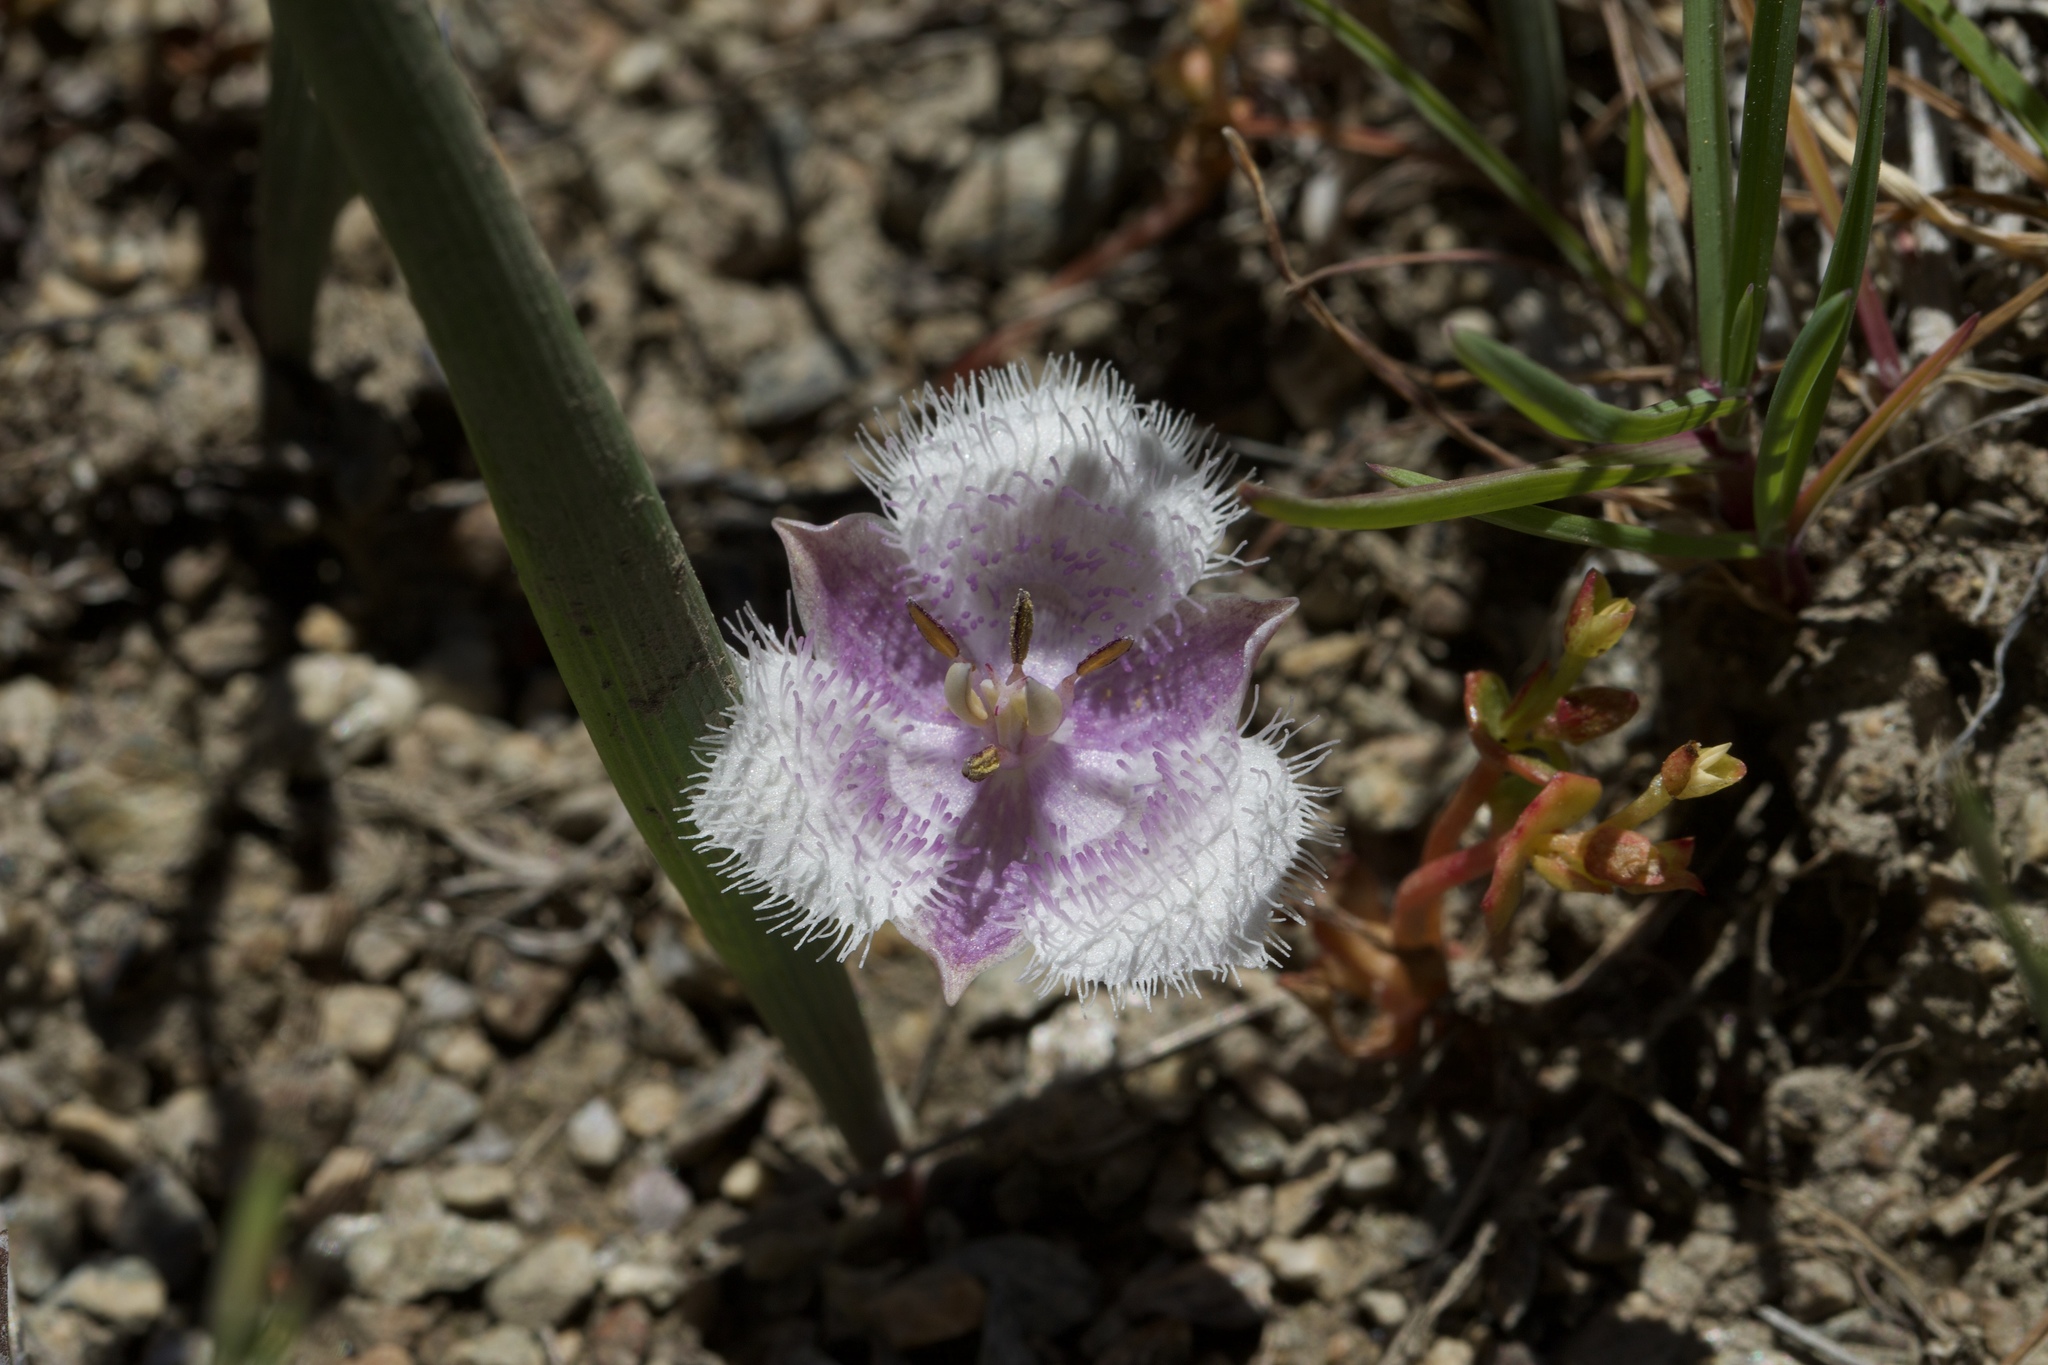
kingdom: Plantae
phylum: Tracheophyta
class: Liliopsida
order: Liliales
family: Liliaceae
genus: Calochortus
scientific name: Calochortus coeruleus
